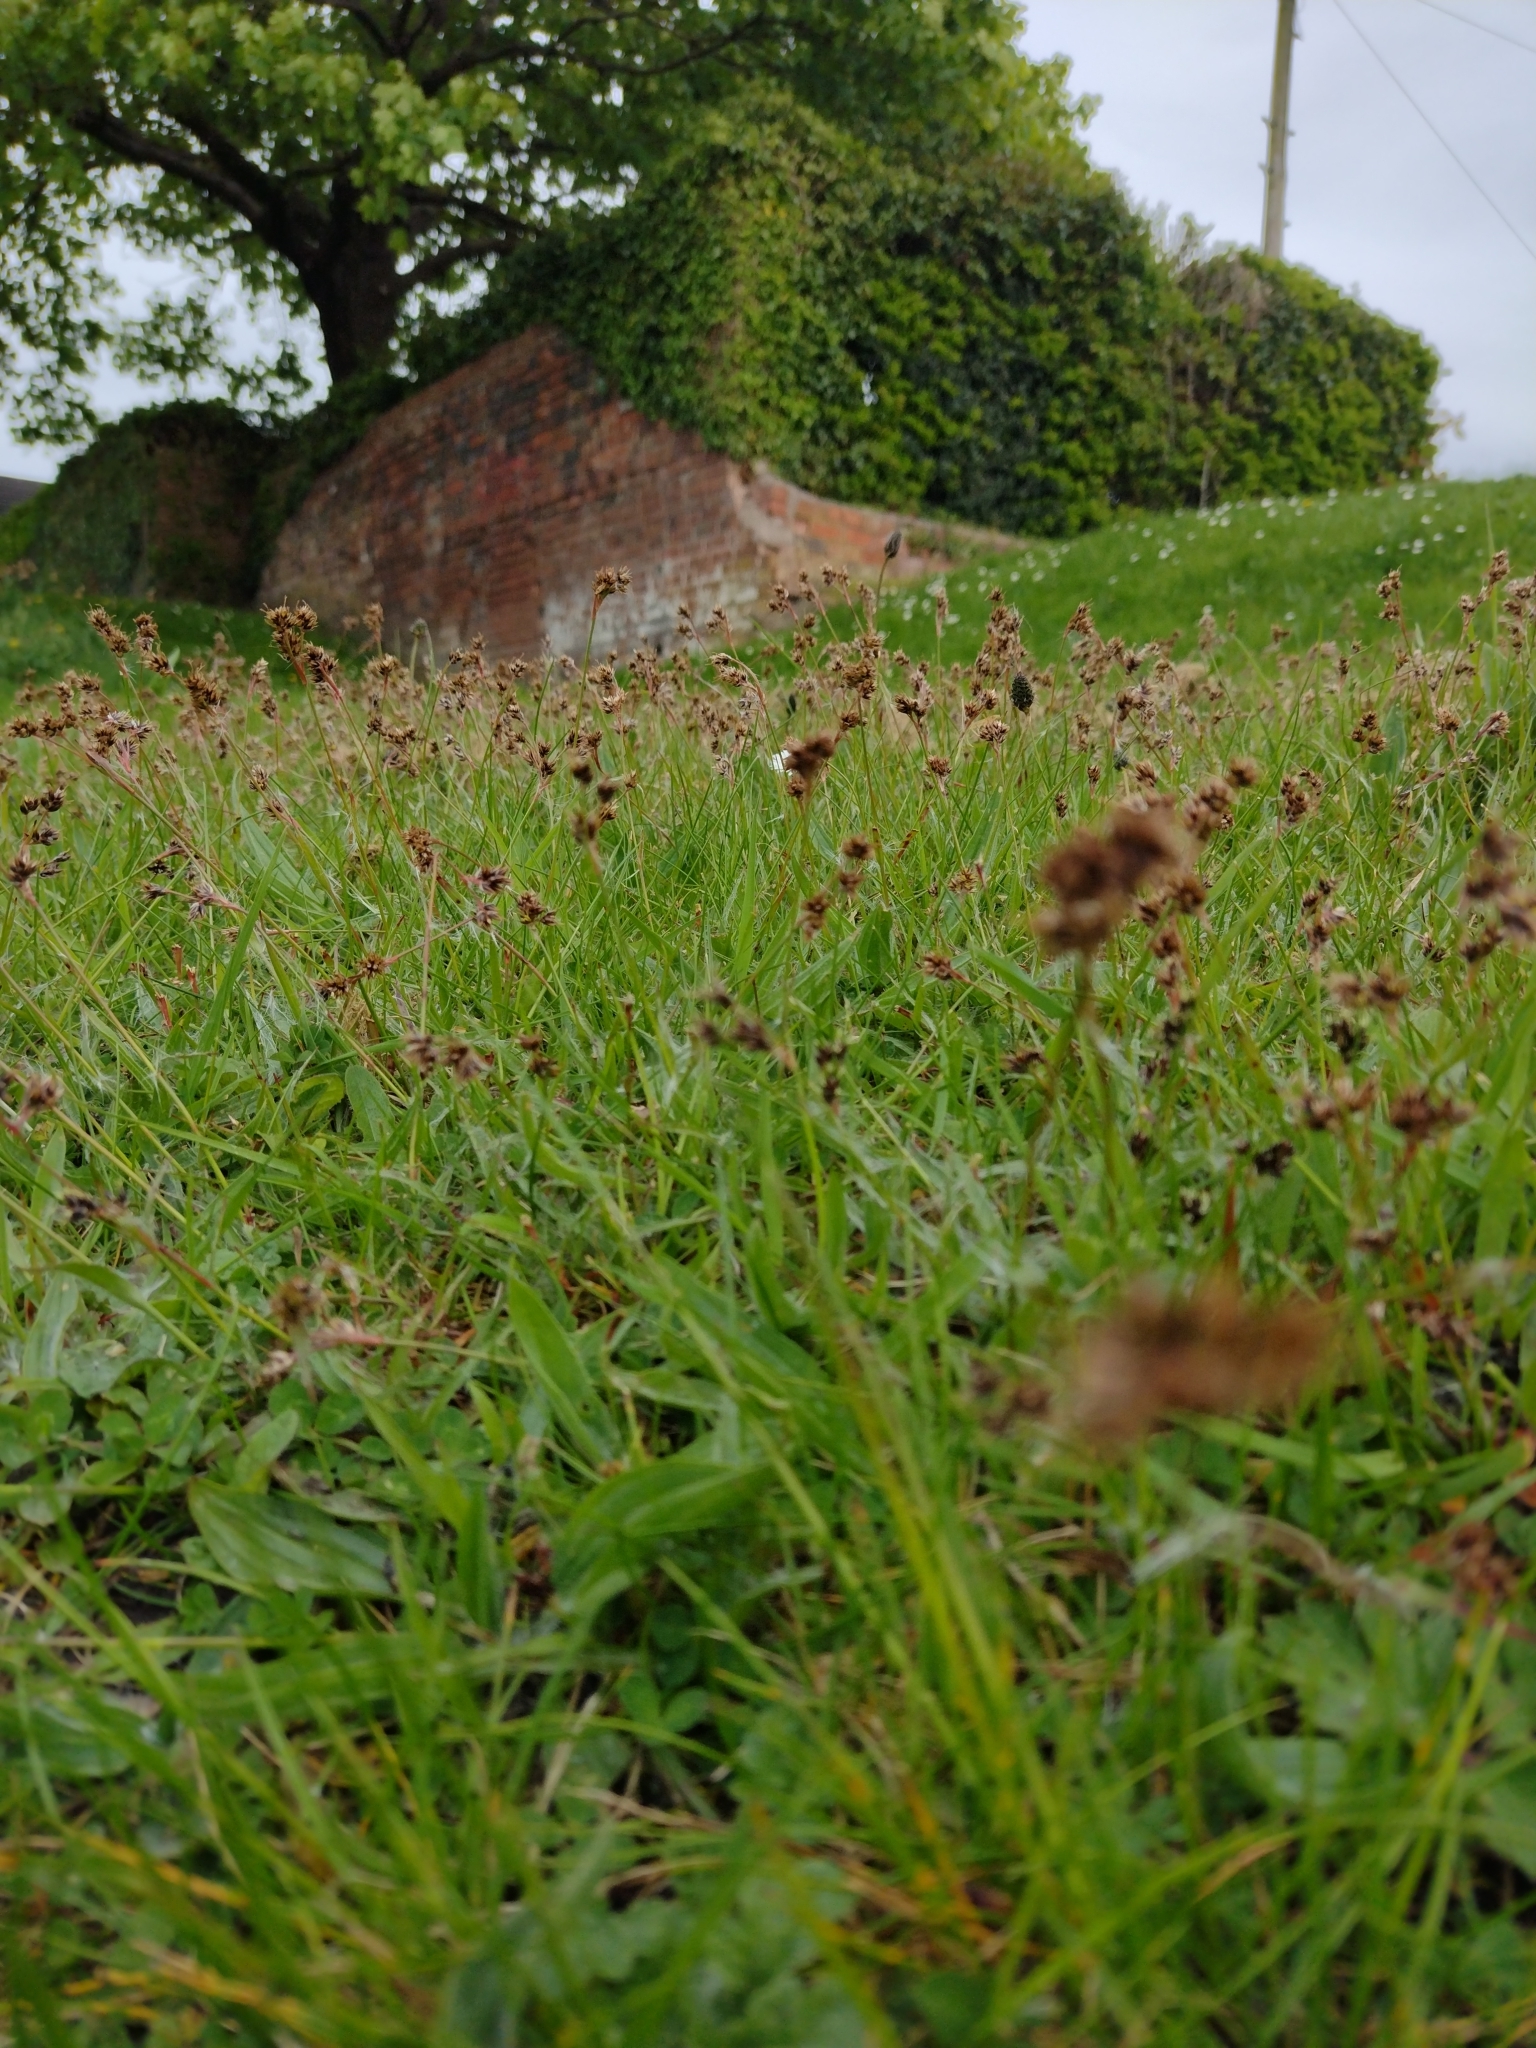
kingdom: Plantae
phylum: Tracheophyta
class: Liliopsida
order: Poales
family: Juncaceae
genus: Luzula
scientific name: Luzula campestris
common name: Field wood-rush
